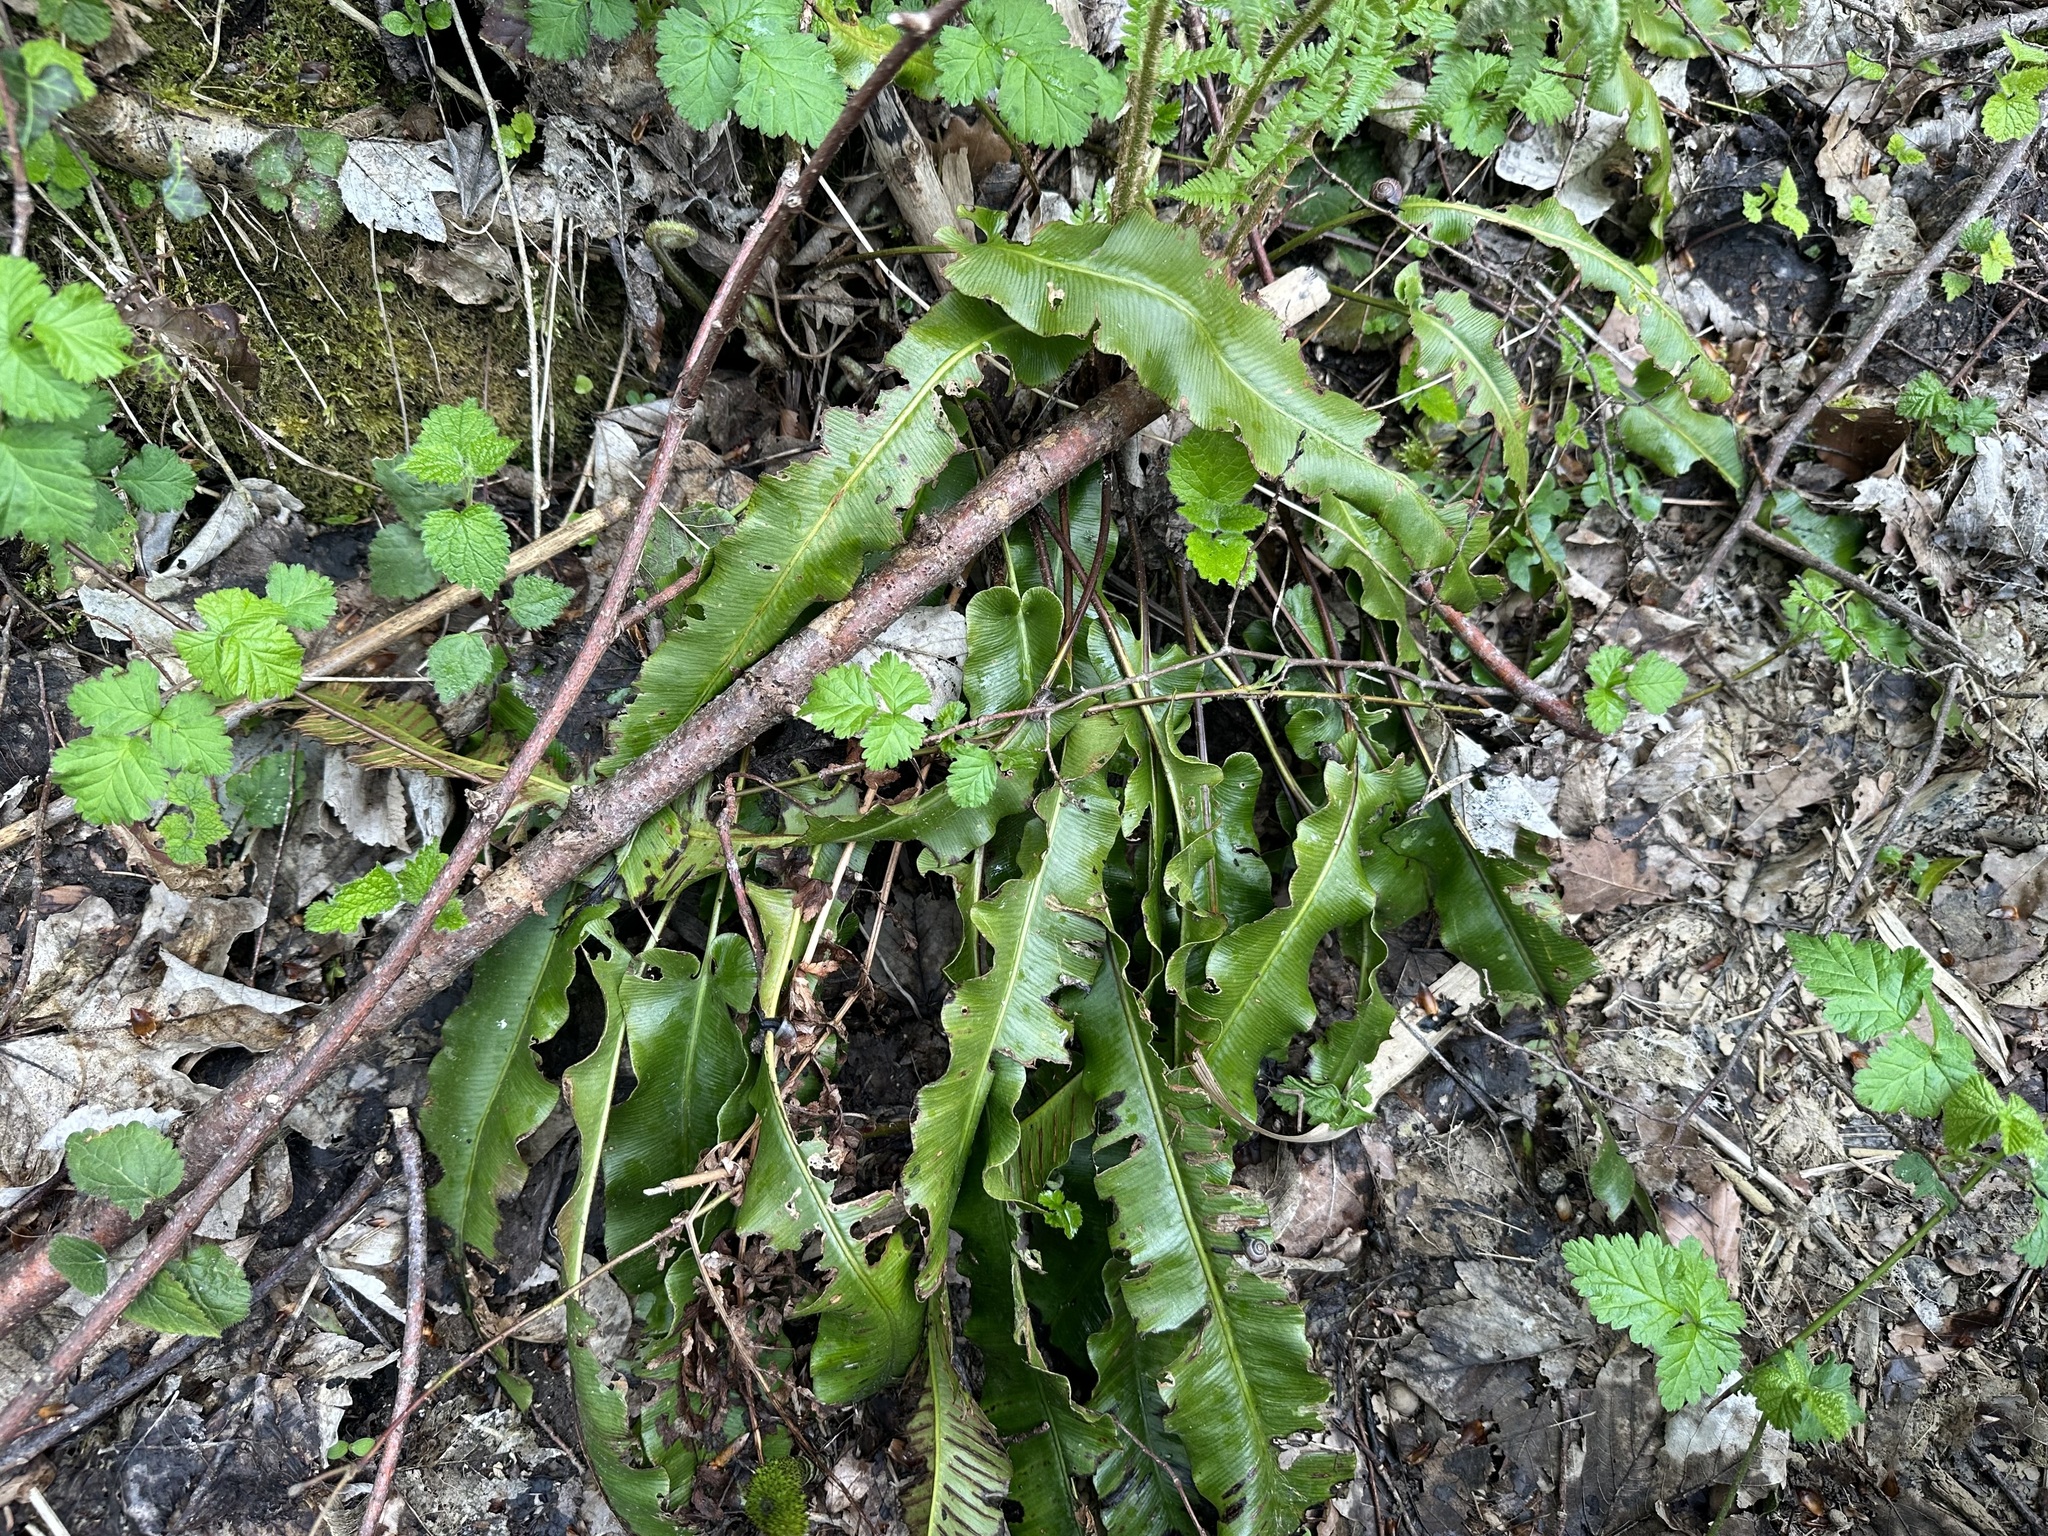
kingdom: Plantae
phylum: Tracheophyta
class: Polypodiopsida
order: Polypodiales
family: Aspleniaceae
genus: Asplenium
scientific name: Asplenium scolopendrium
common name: Hart's-tongue fern
